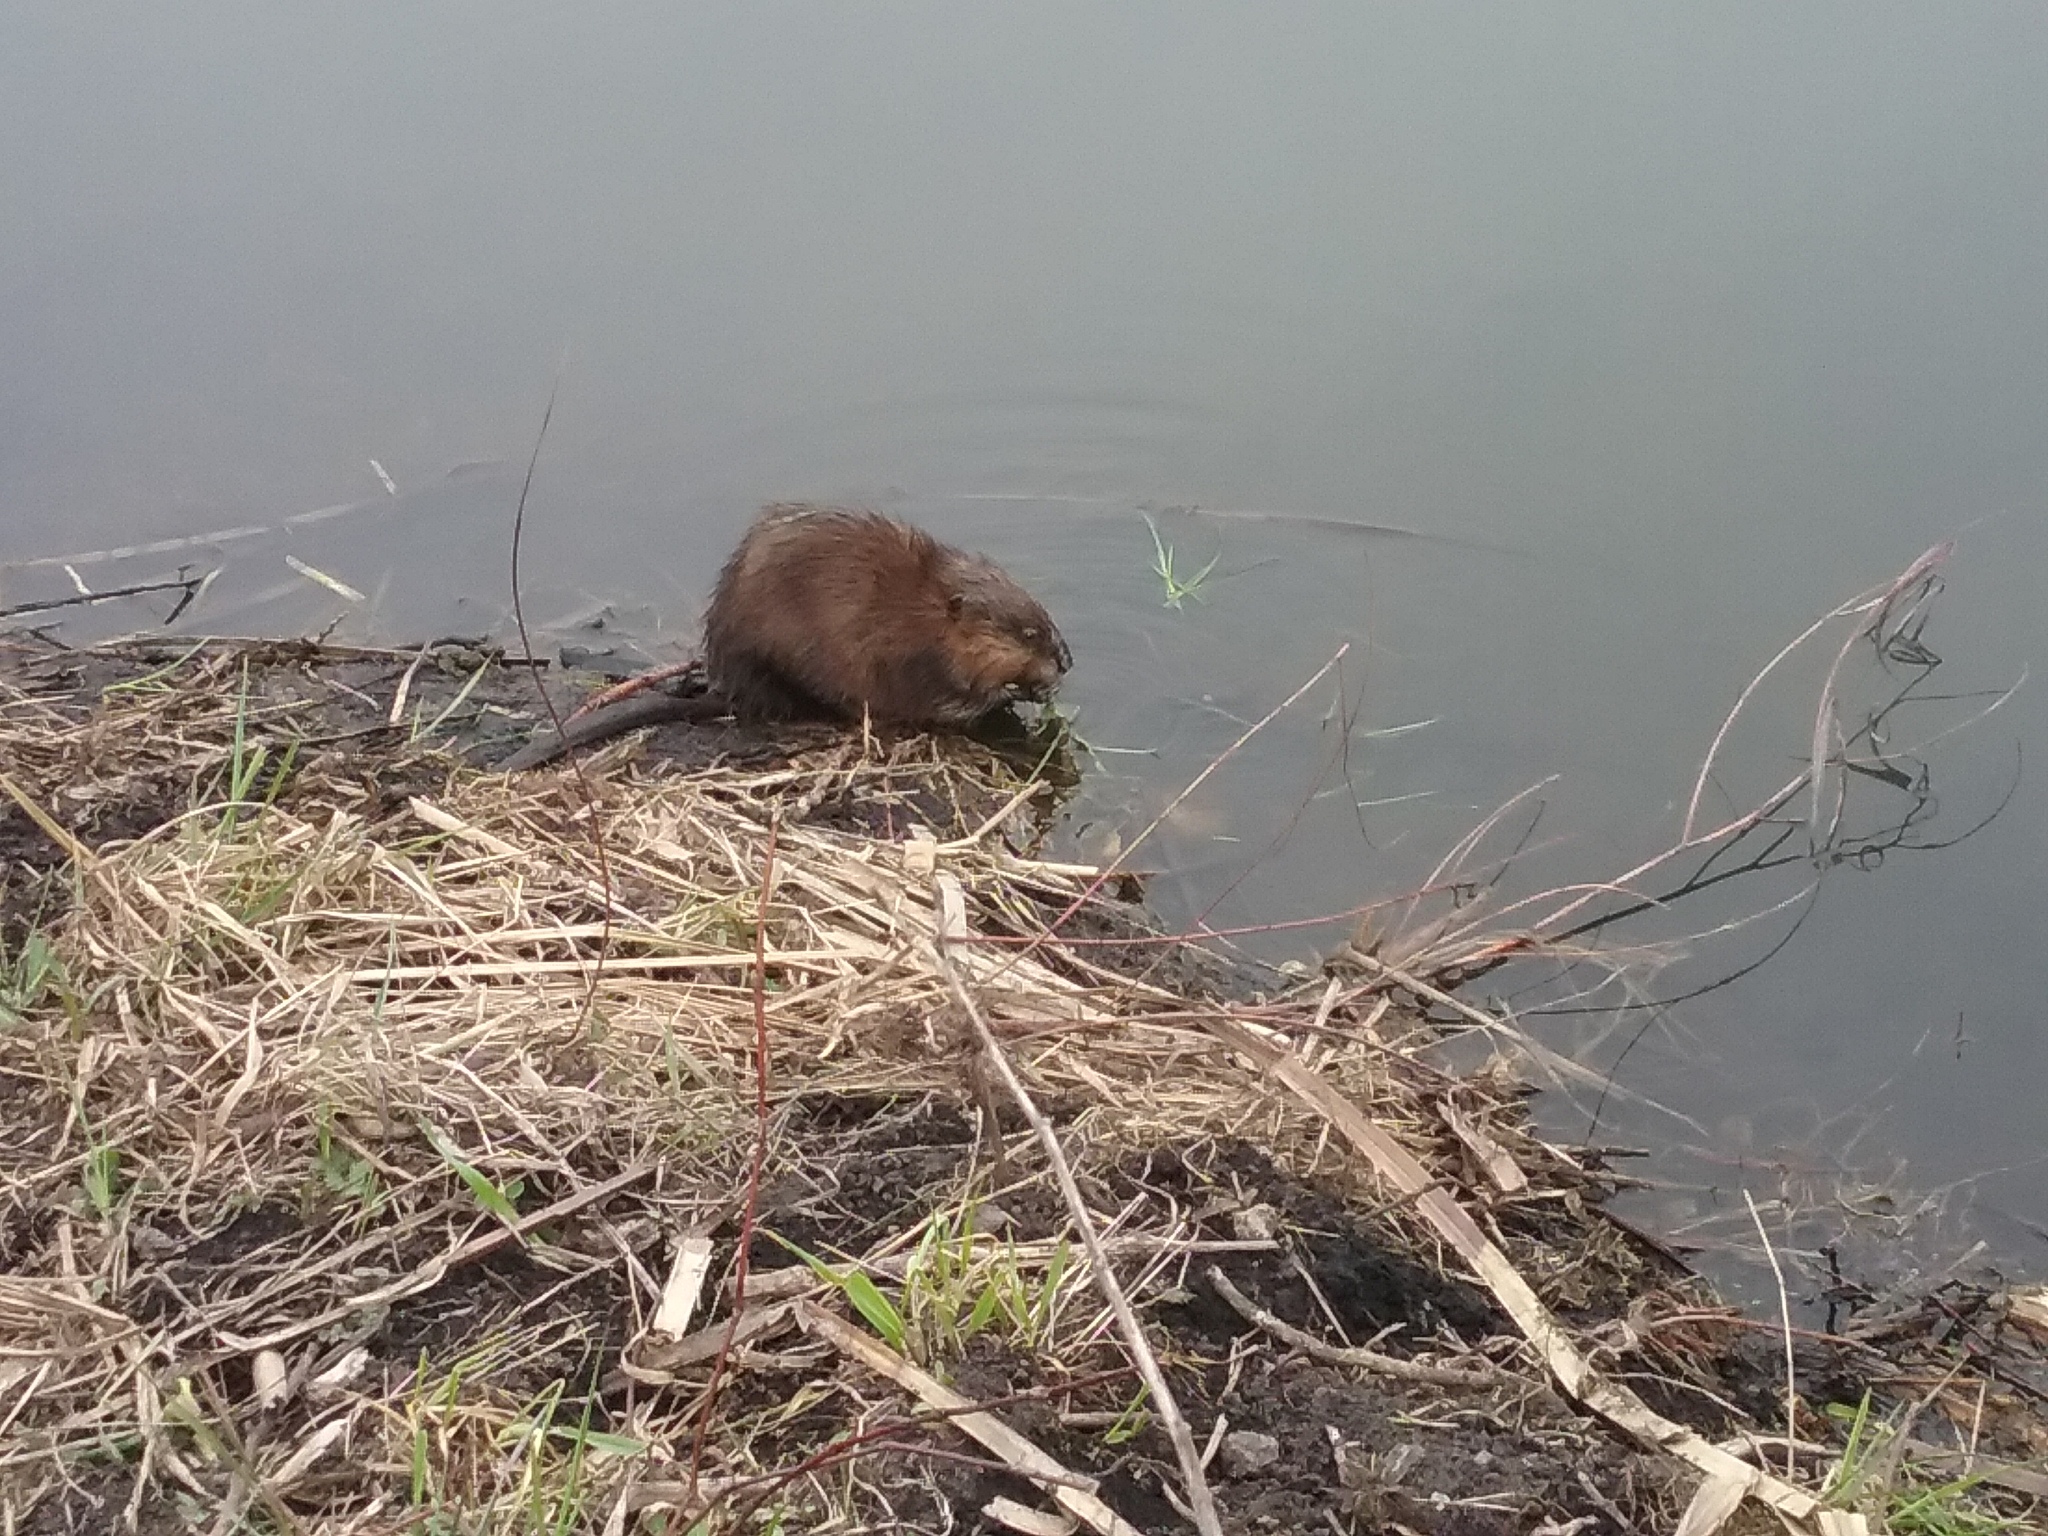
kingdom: Animalia
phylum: Chordata
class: Mammalia
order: Rodentia
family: Cricetidae
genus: Ondatra
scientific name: Ondatra zibethicus
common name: Muskrat
